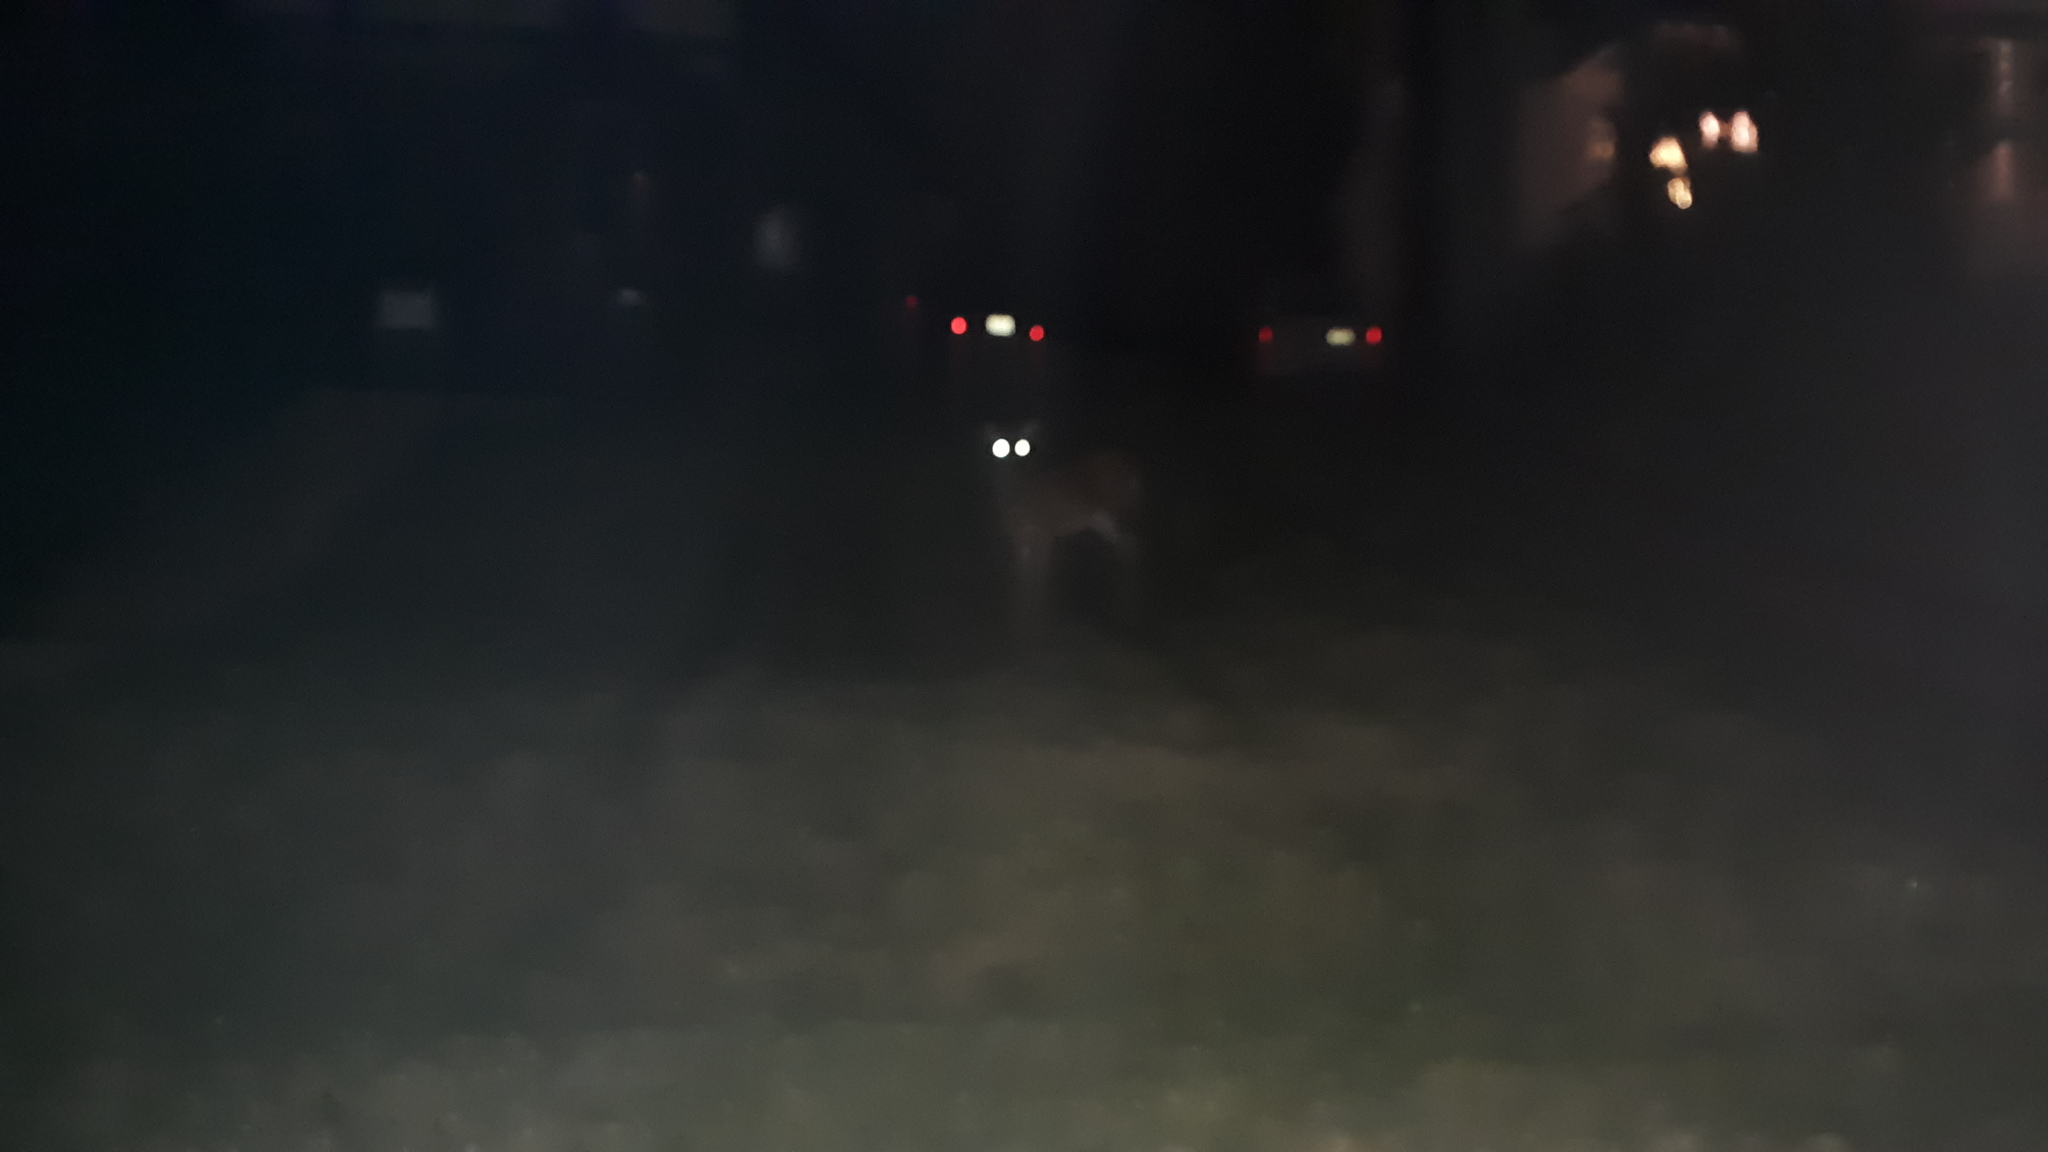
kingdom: Animalia
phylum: Chordata
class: Mammalia
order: Artiodactyla
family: Cervidae
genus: Odocoileus
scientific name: Odocoileus virginianus
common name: White-tailed deer
